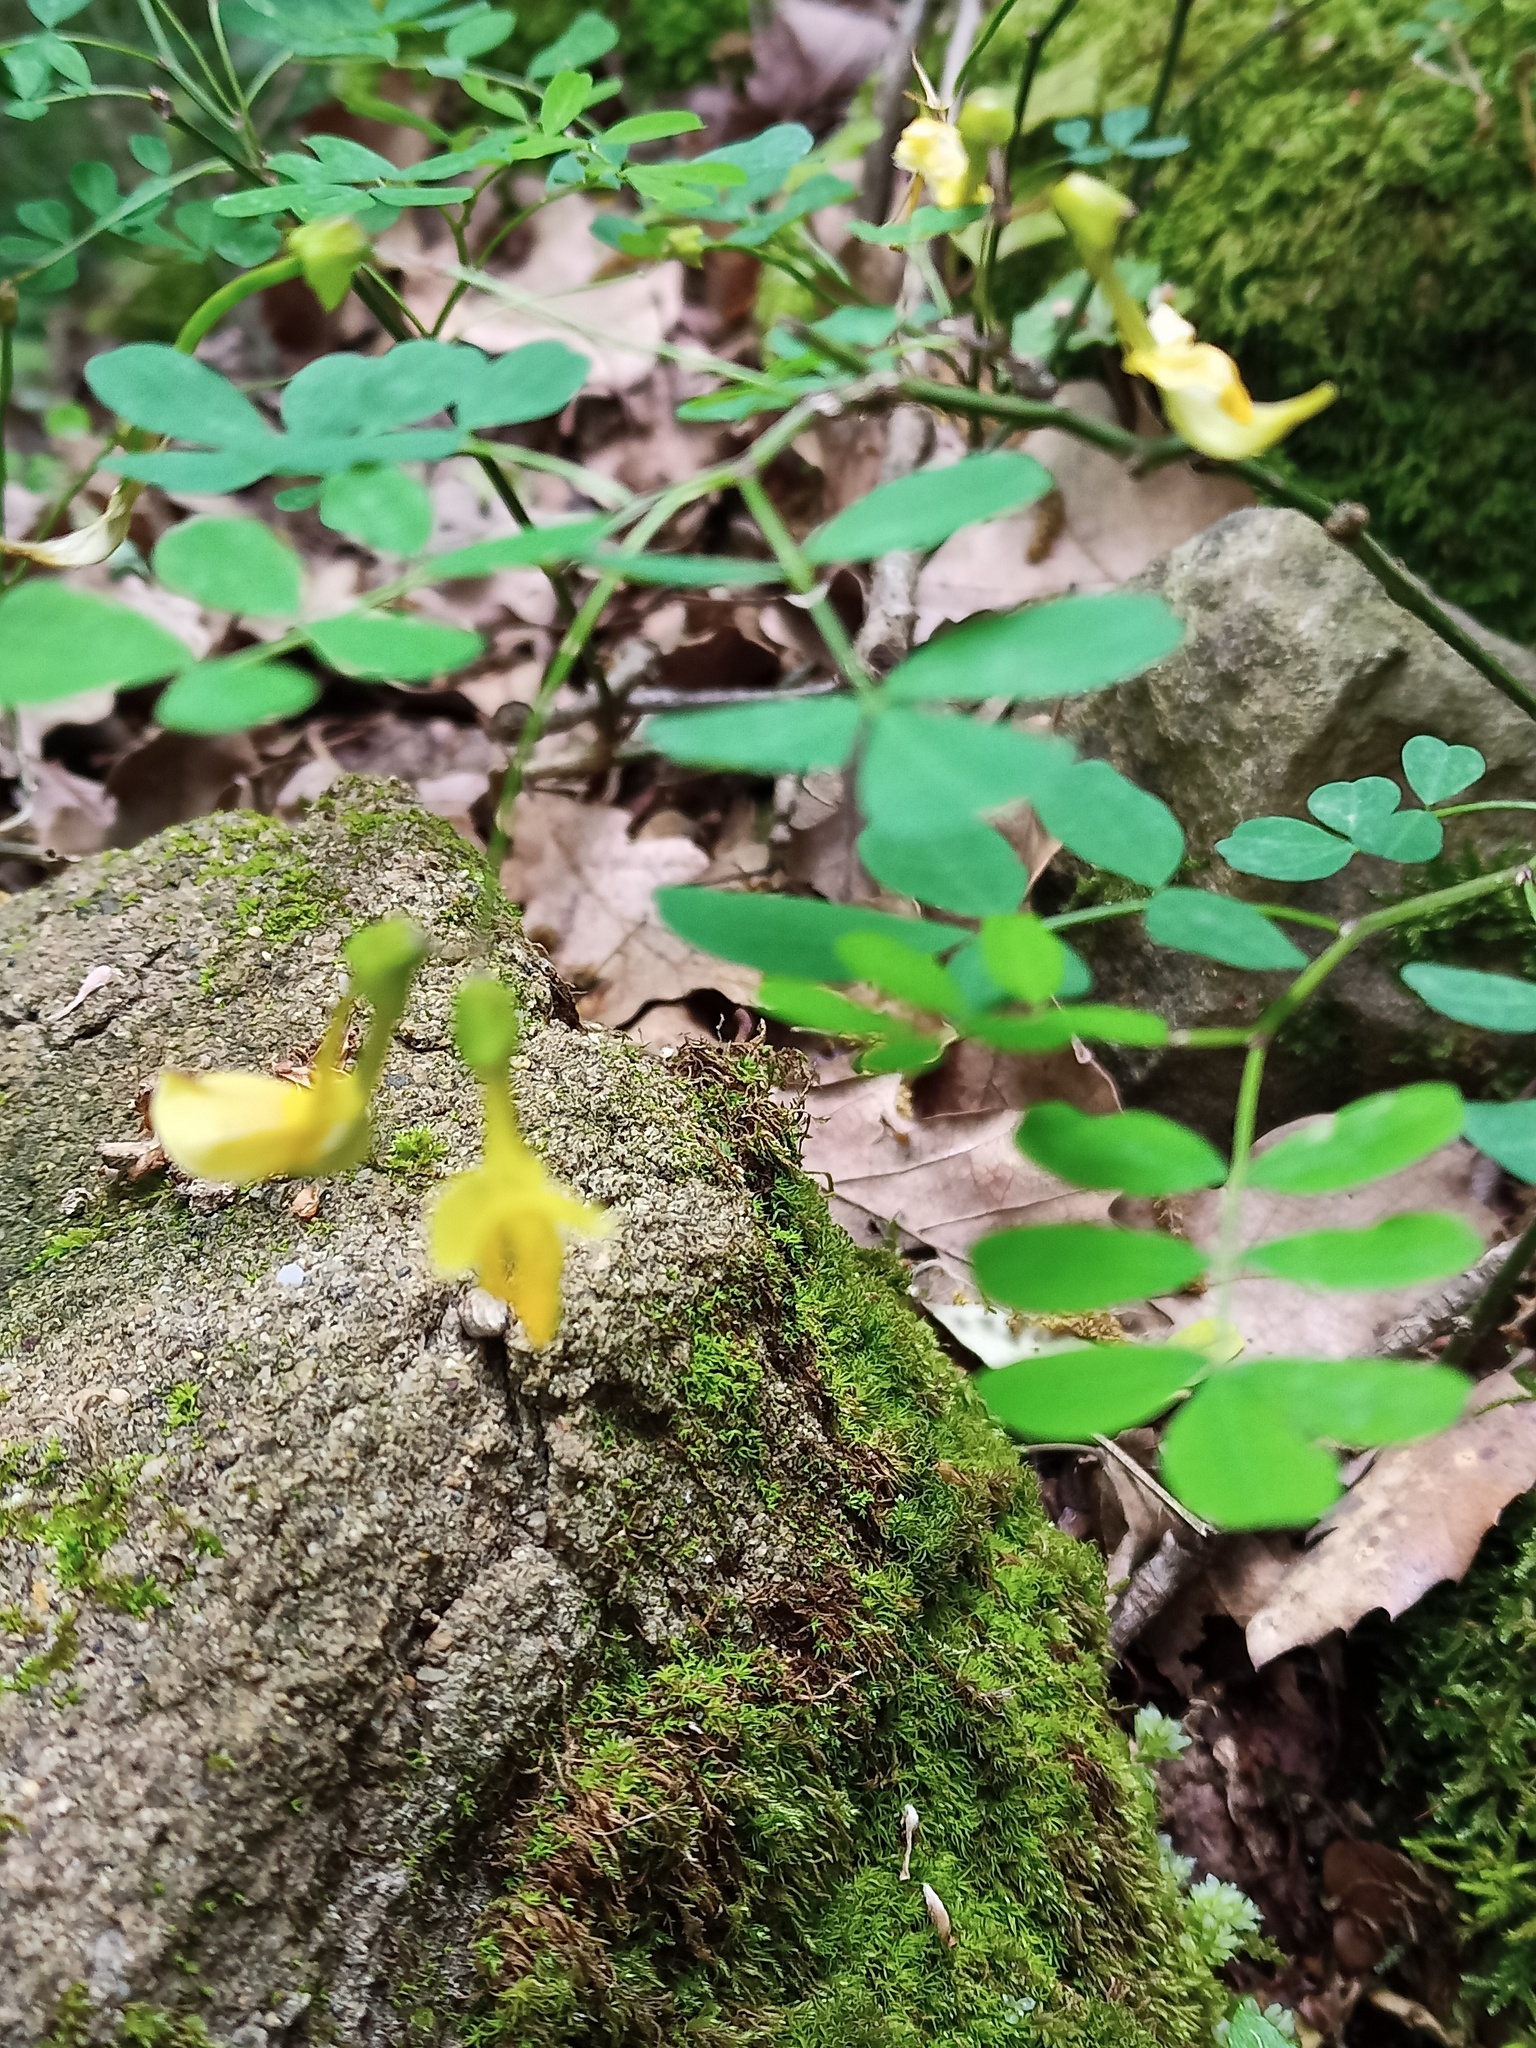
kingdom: Plantae
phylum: Tracheophyta
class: Magnoliopsida
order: Fabales
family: Fabaceae
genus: Hippocrepis
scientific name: Hippocrepis emerus
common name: Scorpion senna
